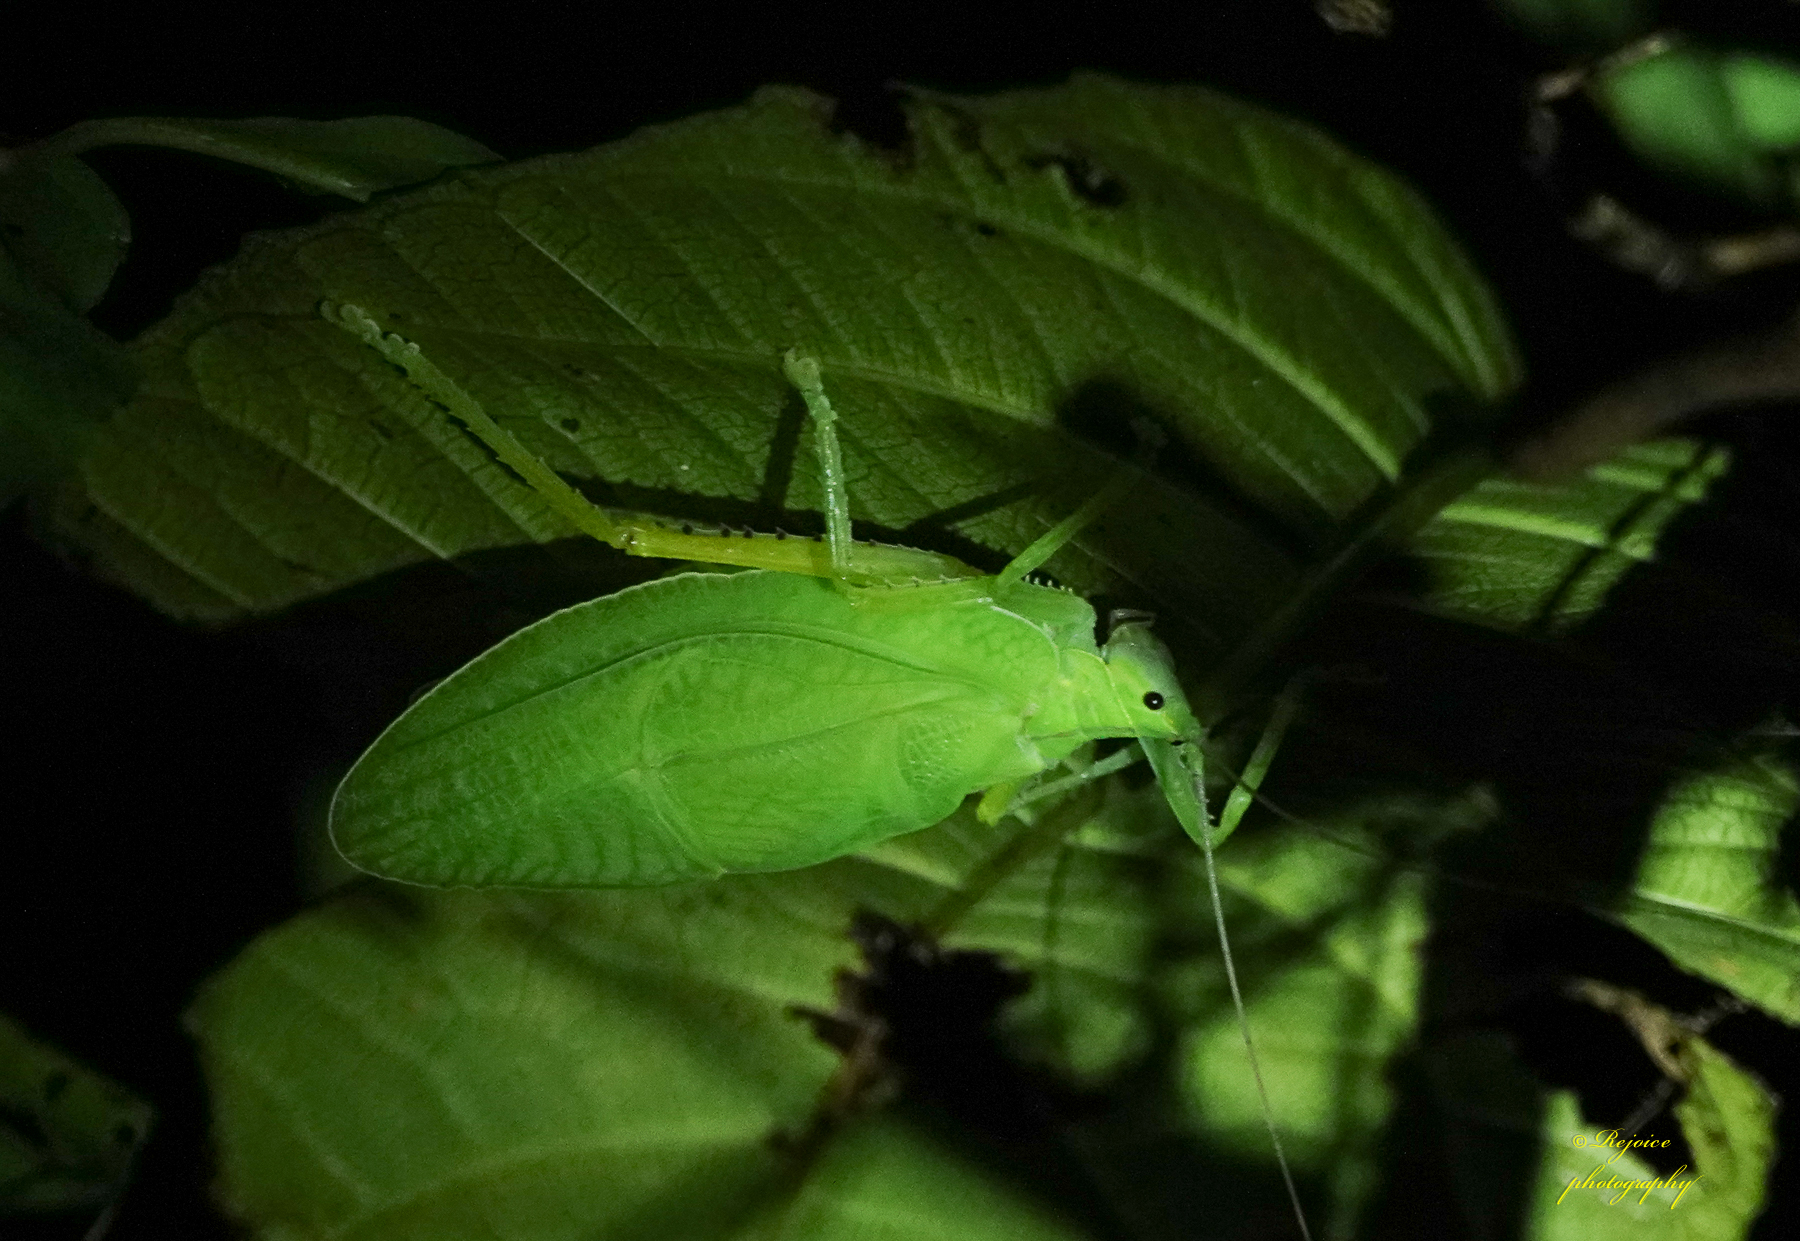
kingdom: Animalia
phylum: Arthropoda
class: Insecta
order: Orthoptera
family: Tettigoniidae
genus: Tympanophyllum
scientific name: Tympanophyllum porrectum
